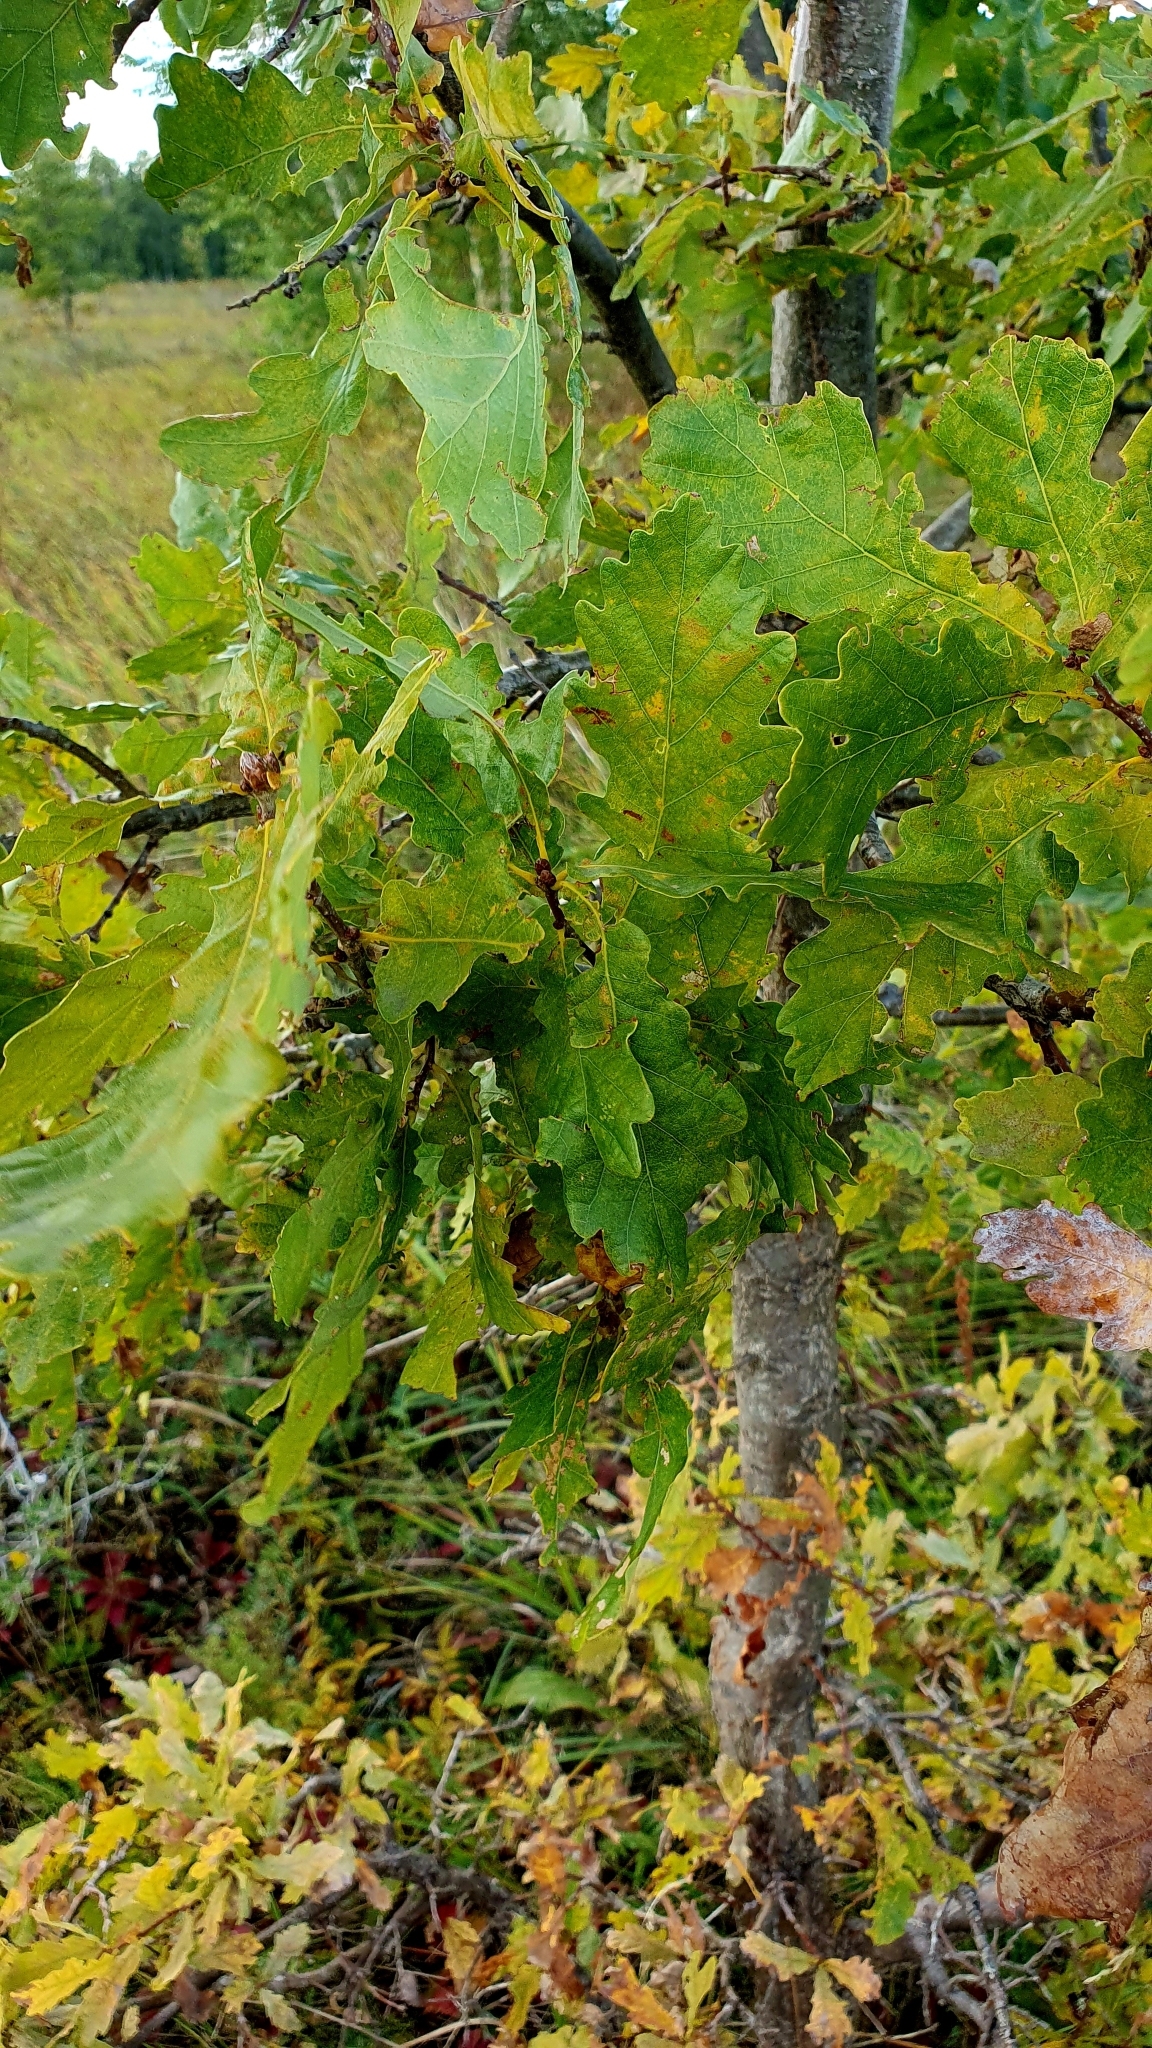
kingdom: Plantae
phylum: Tracheophyta
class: Magnoliopsida
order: Fagales
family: Fagaceae
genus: Quercus
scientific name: Quercus robur
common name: Pedunculate oak
